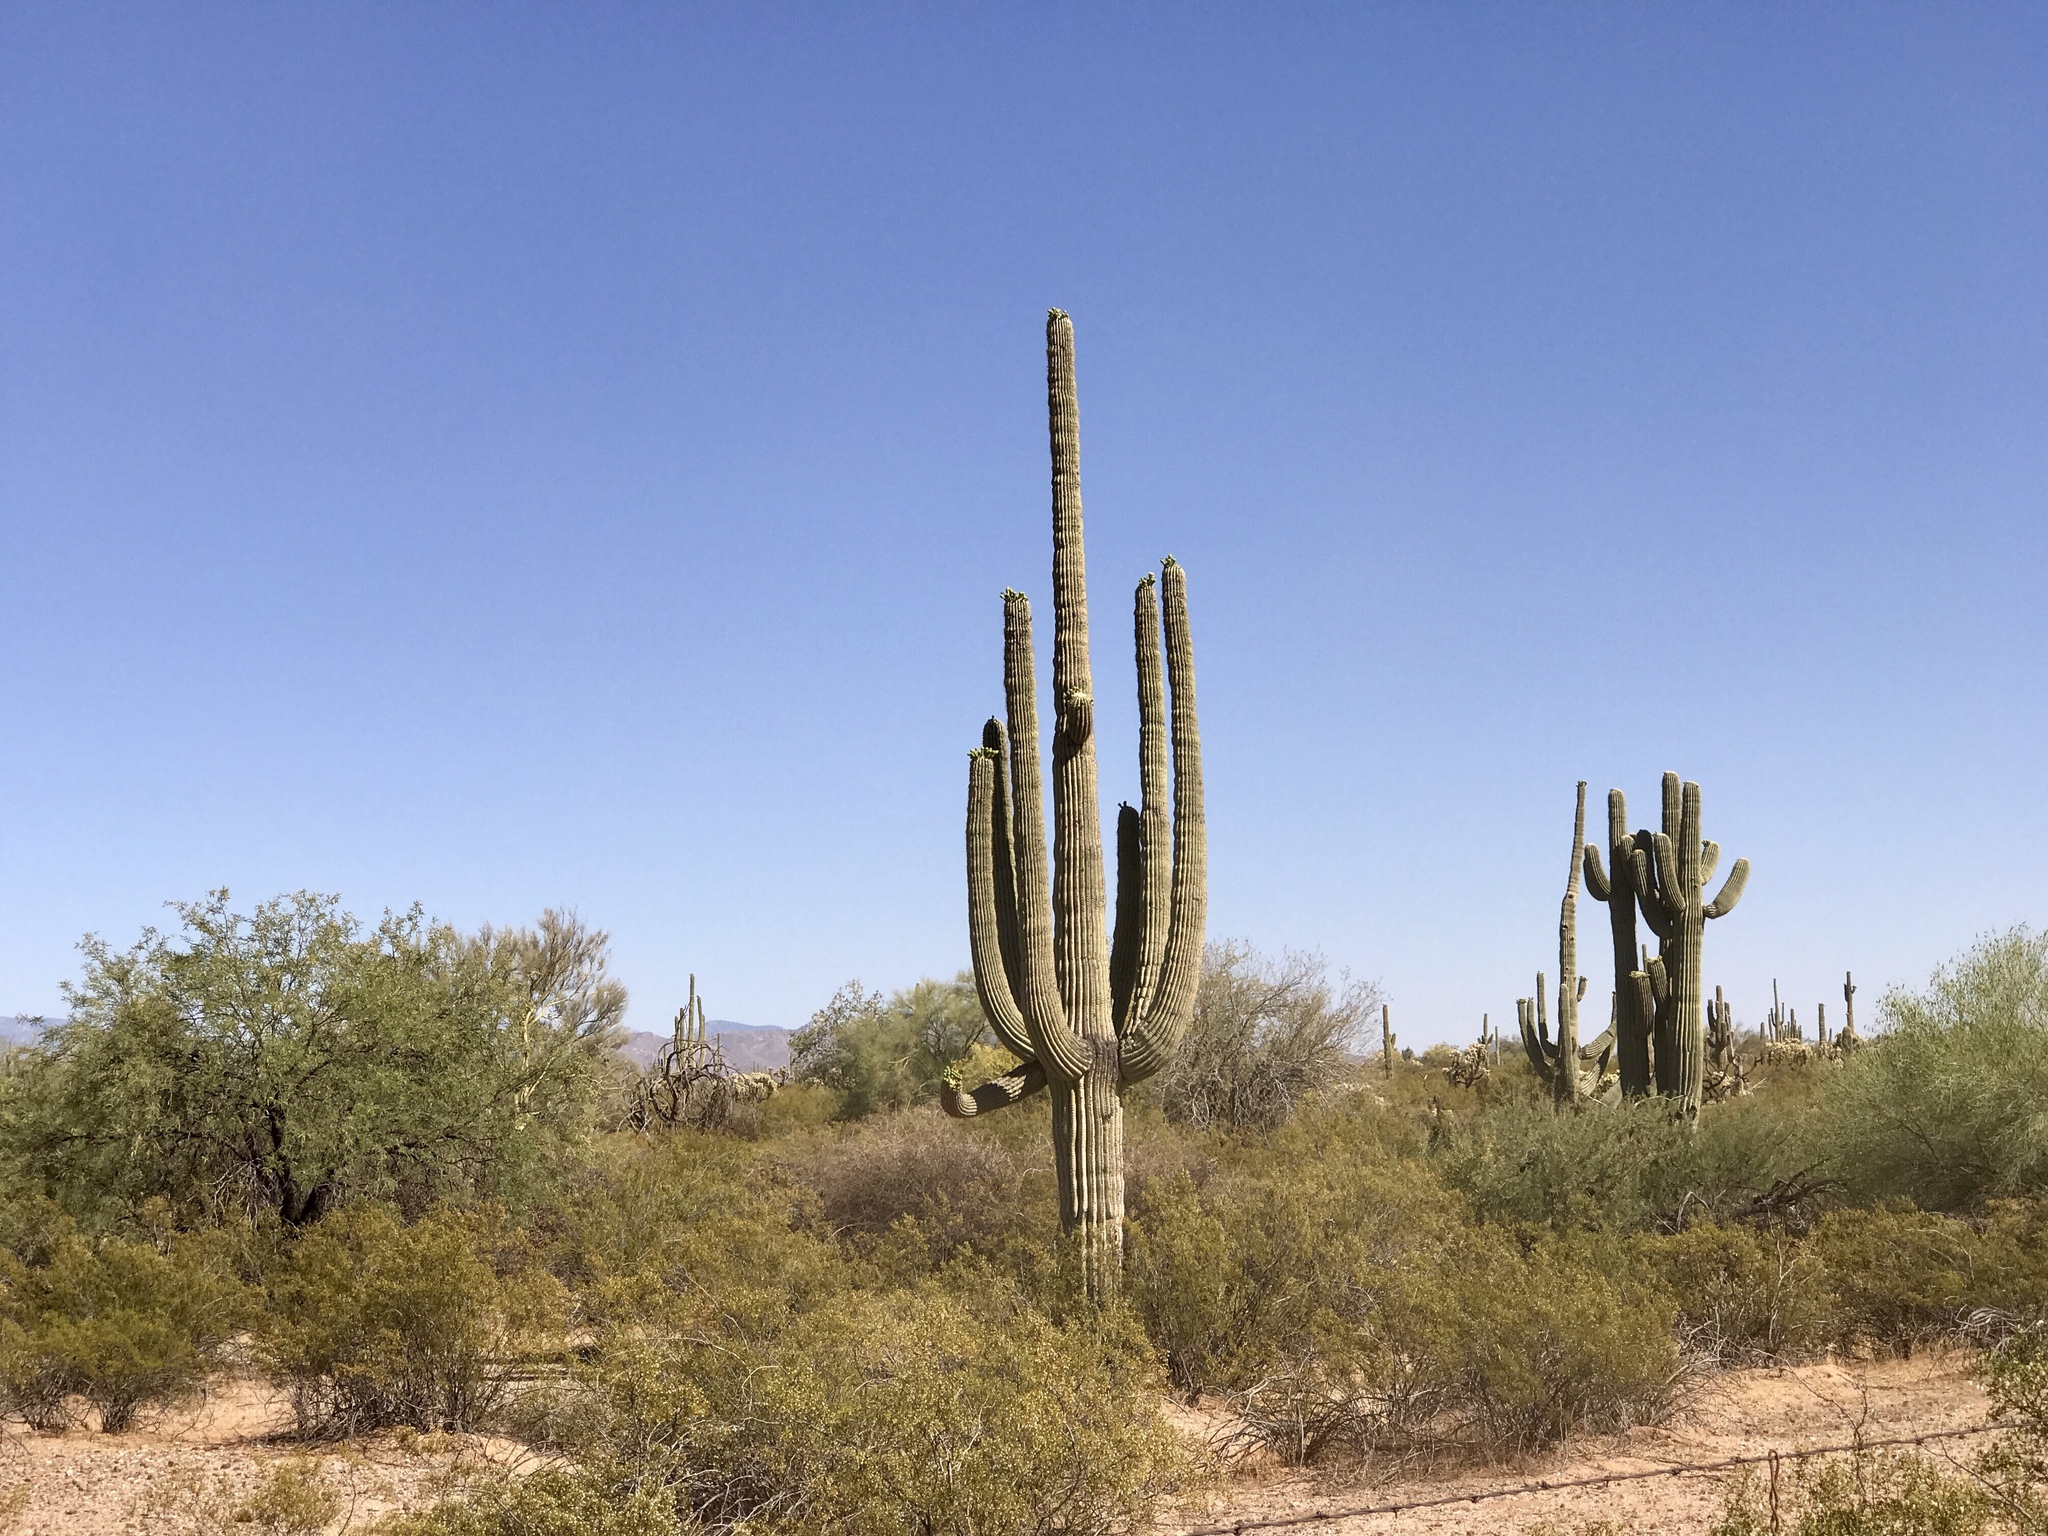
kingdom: Plantae
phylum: Tracheophyta
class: Magnoliopsida
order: Caryophyllales
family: Cactaceae
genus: Carnegiea
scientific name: Carnegiea gigantea
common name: Saguaro
